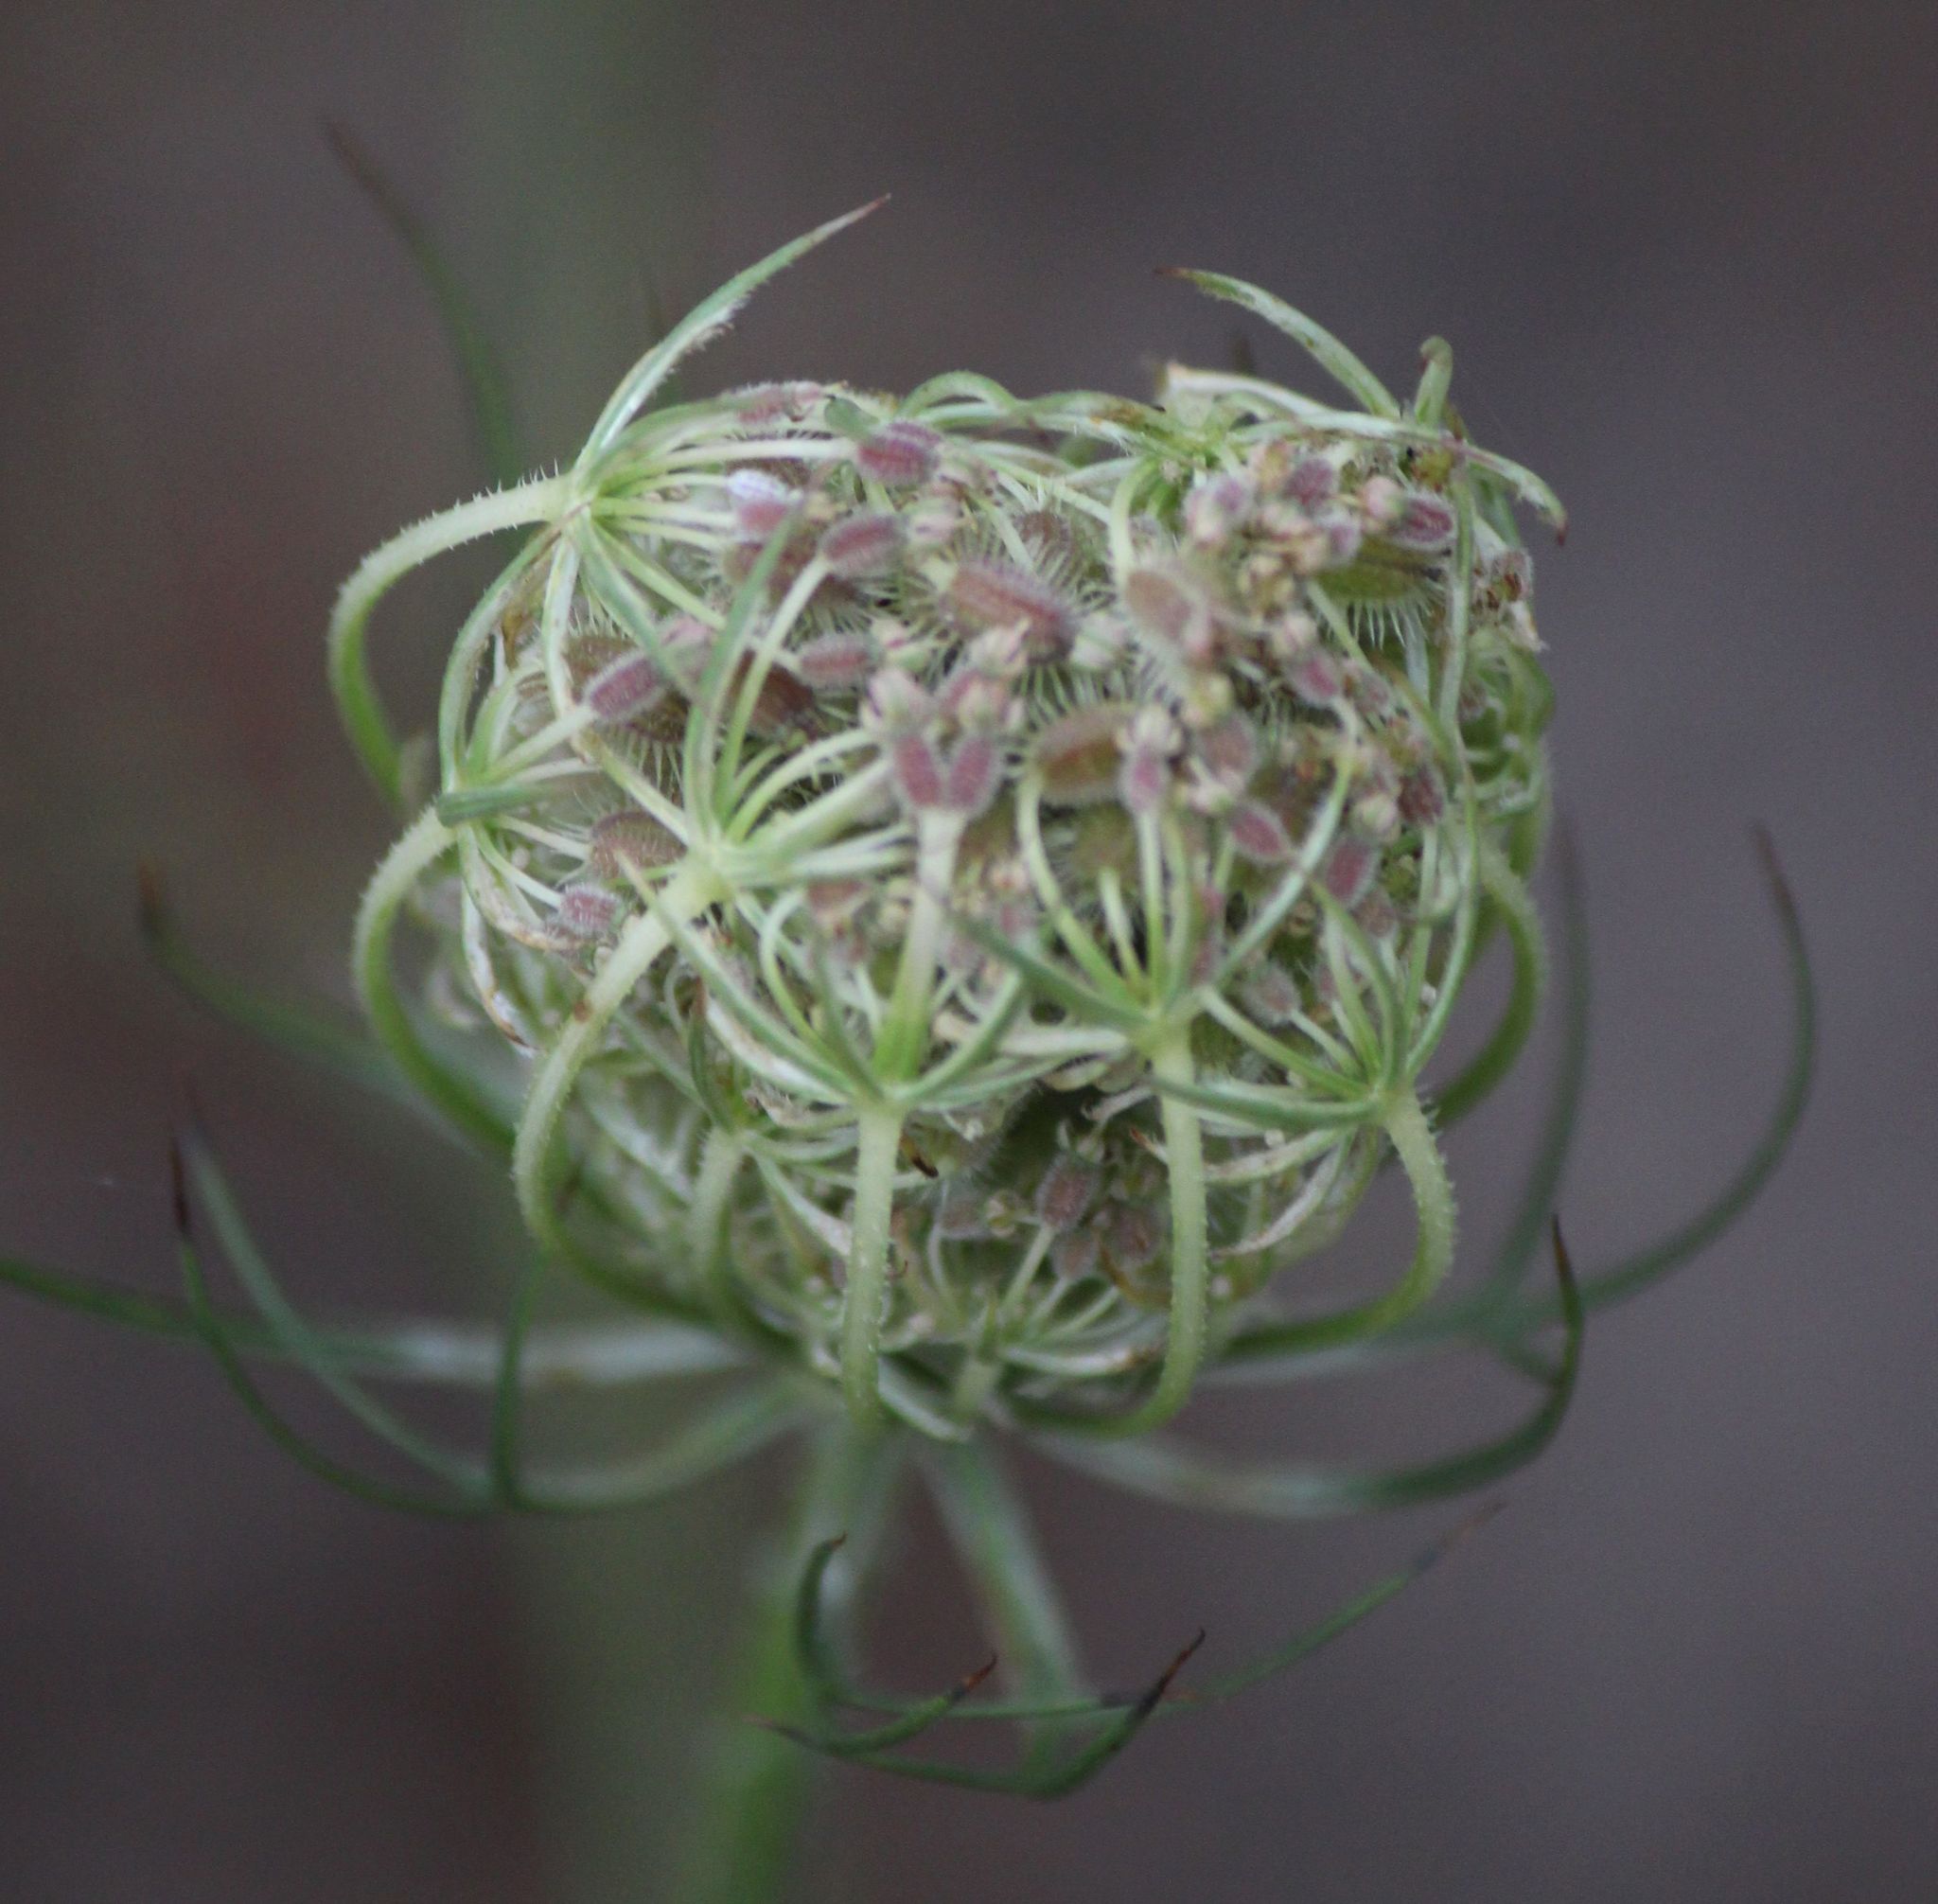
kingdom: Plantae
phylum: Tracheophyta
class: Magnoliopsida
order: Apiales
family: Apiaceae
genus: Daucus
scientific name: Daucus carota
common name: Wild carrot
